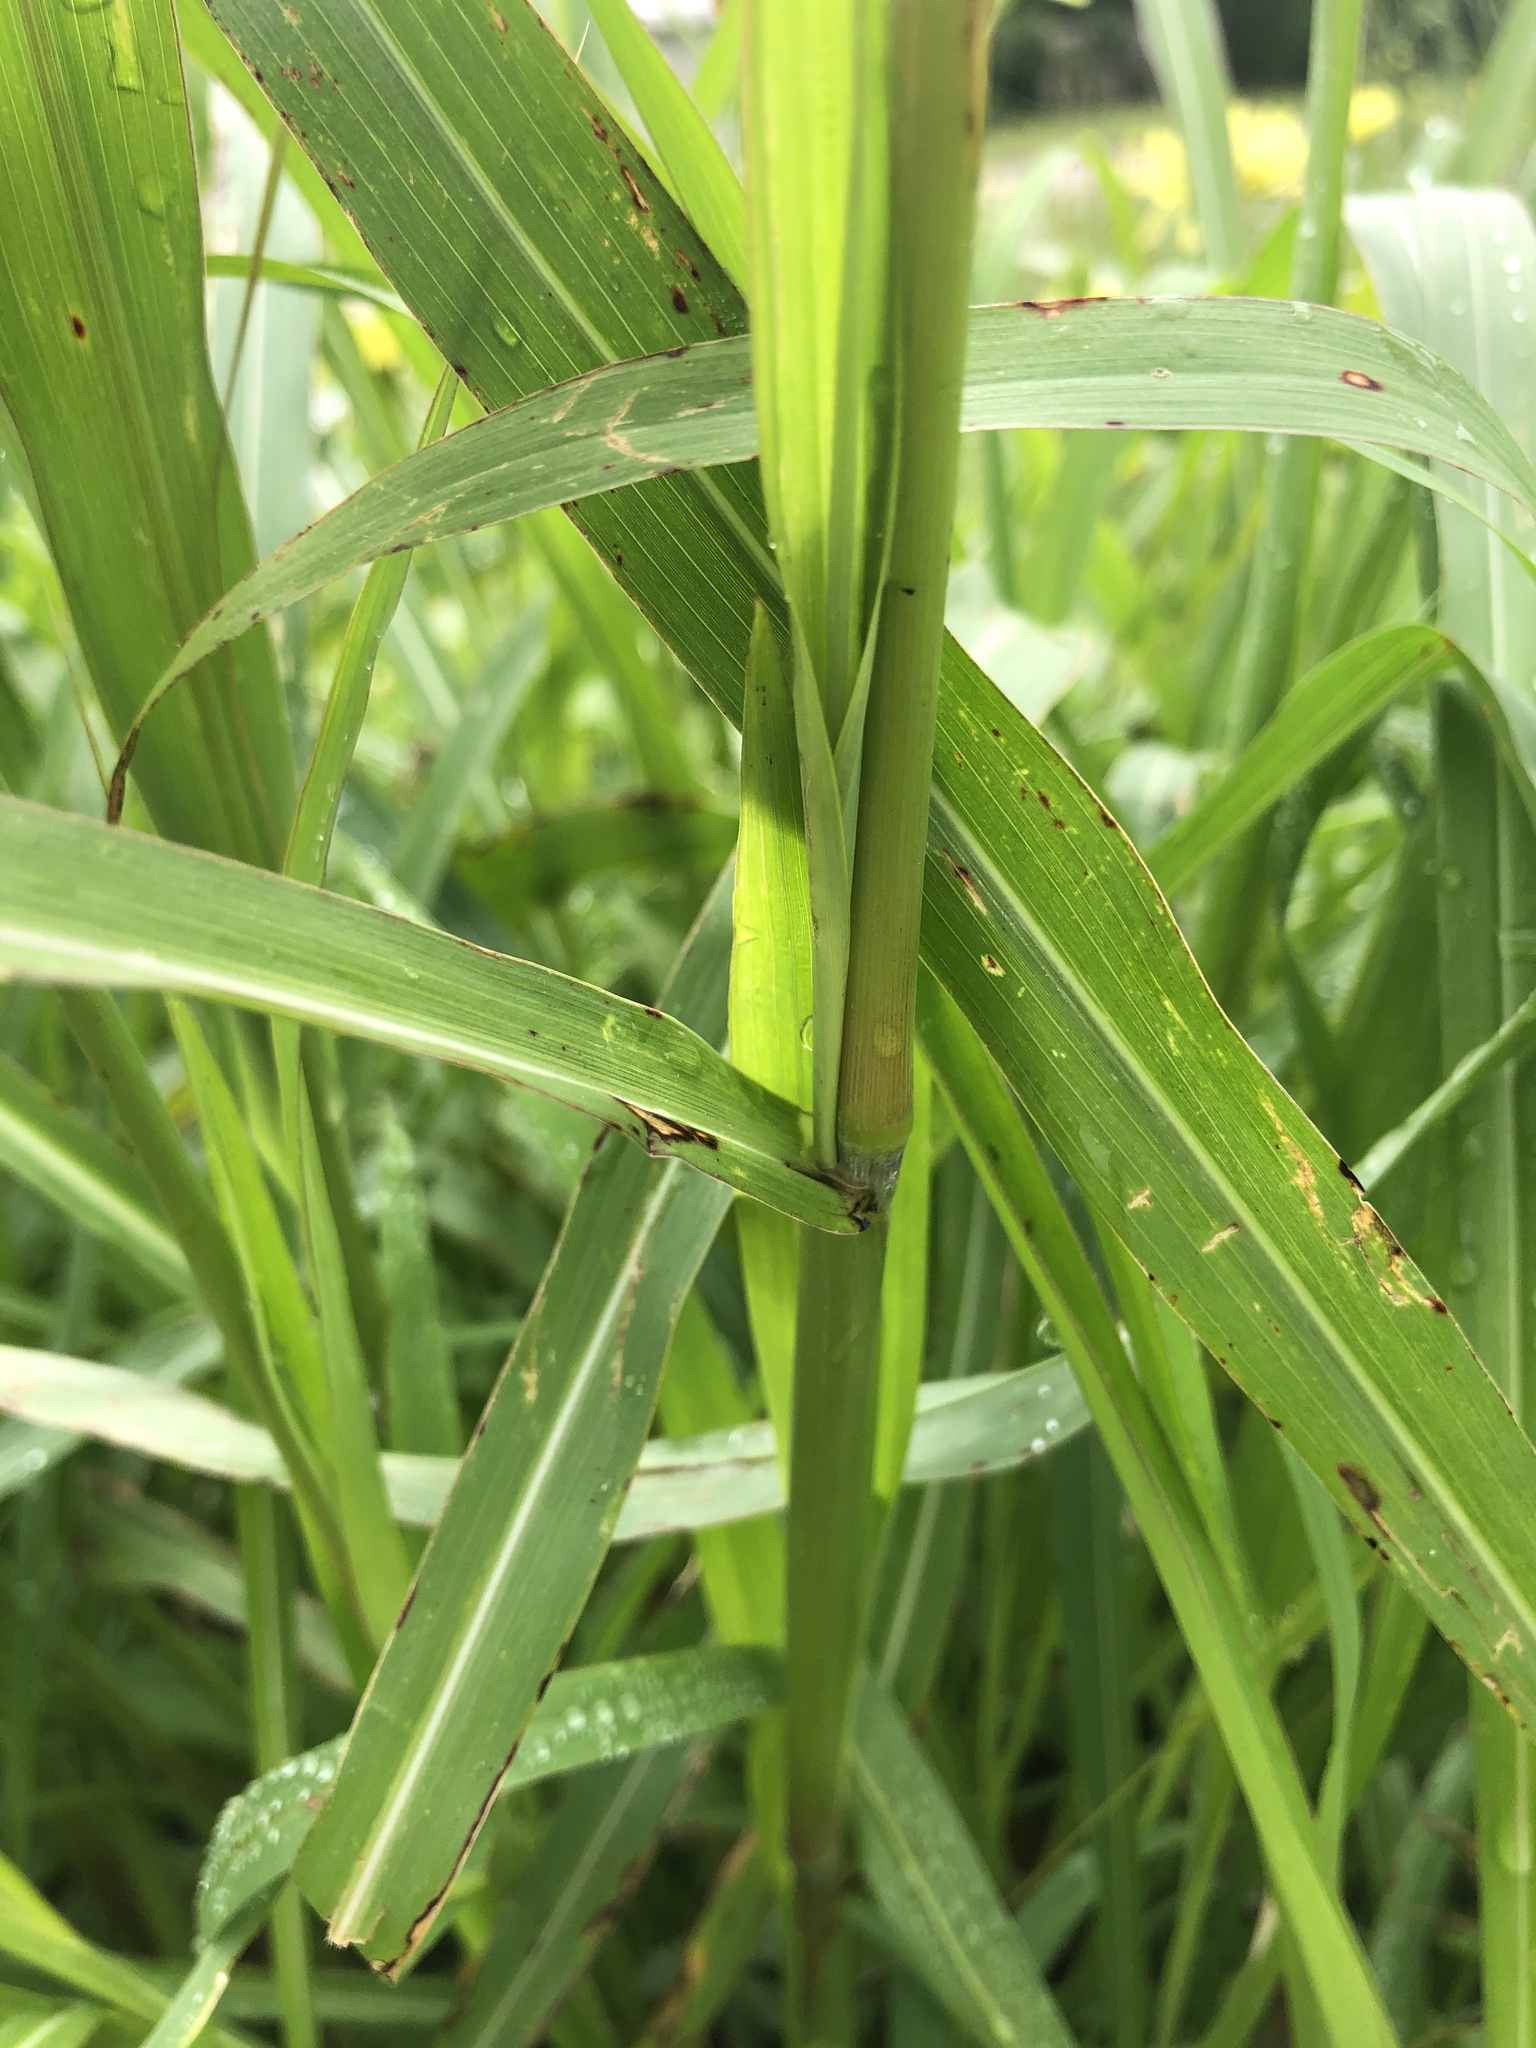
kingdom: Plantae
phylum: Tracheophyta
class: Liliopsida
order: Poales
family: Poaceae
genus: Sorghum
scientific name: Sorghum halepense
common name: Johnson-grass
